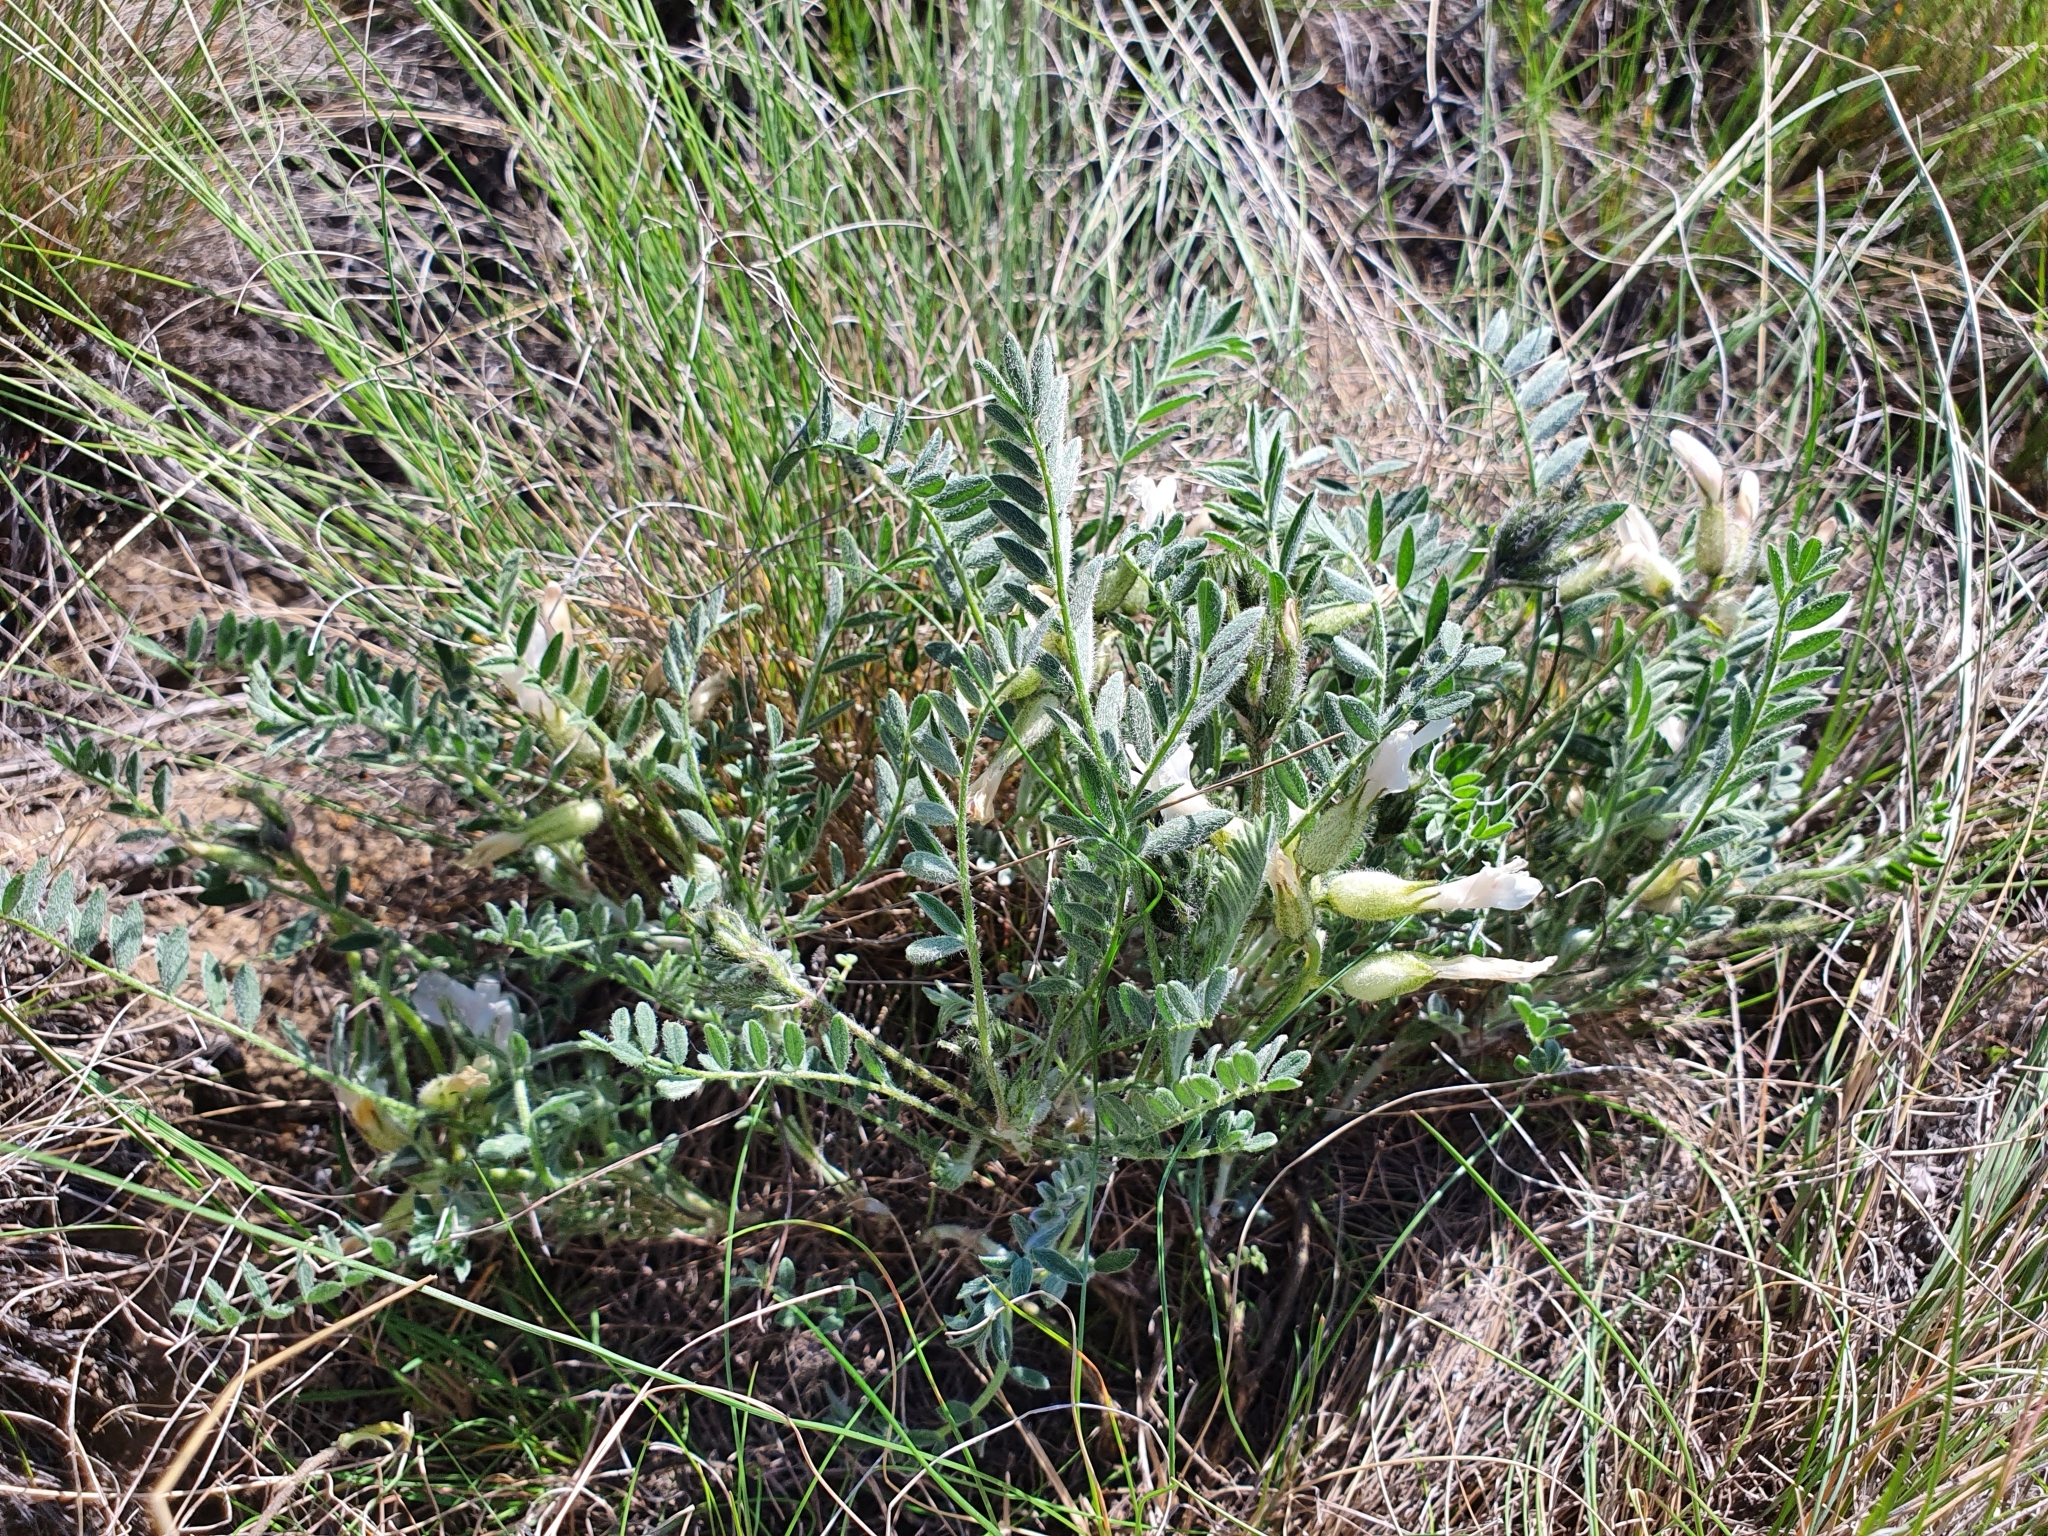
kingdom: Plantae
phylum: Tracheophyta
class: Magnoliopsida
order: Fabales
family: Fabaceae
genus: Astragalus
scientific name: Astragalus rupifragus
